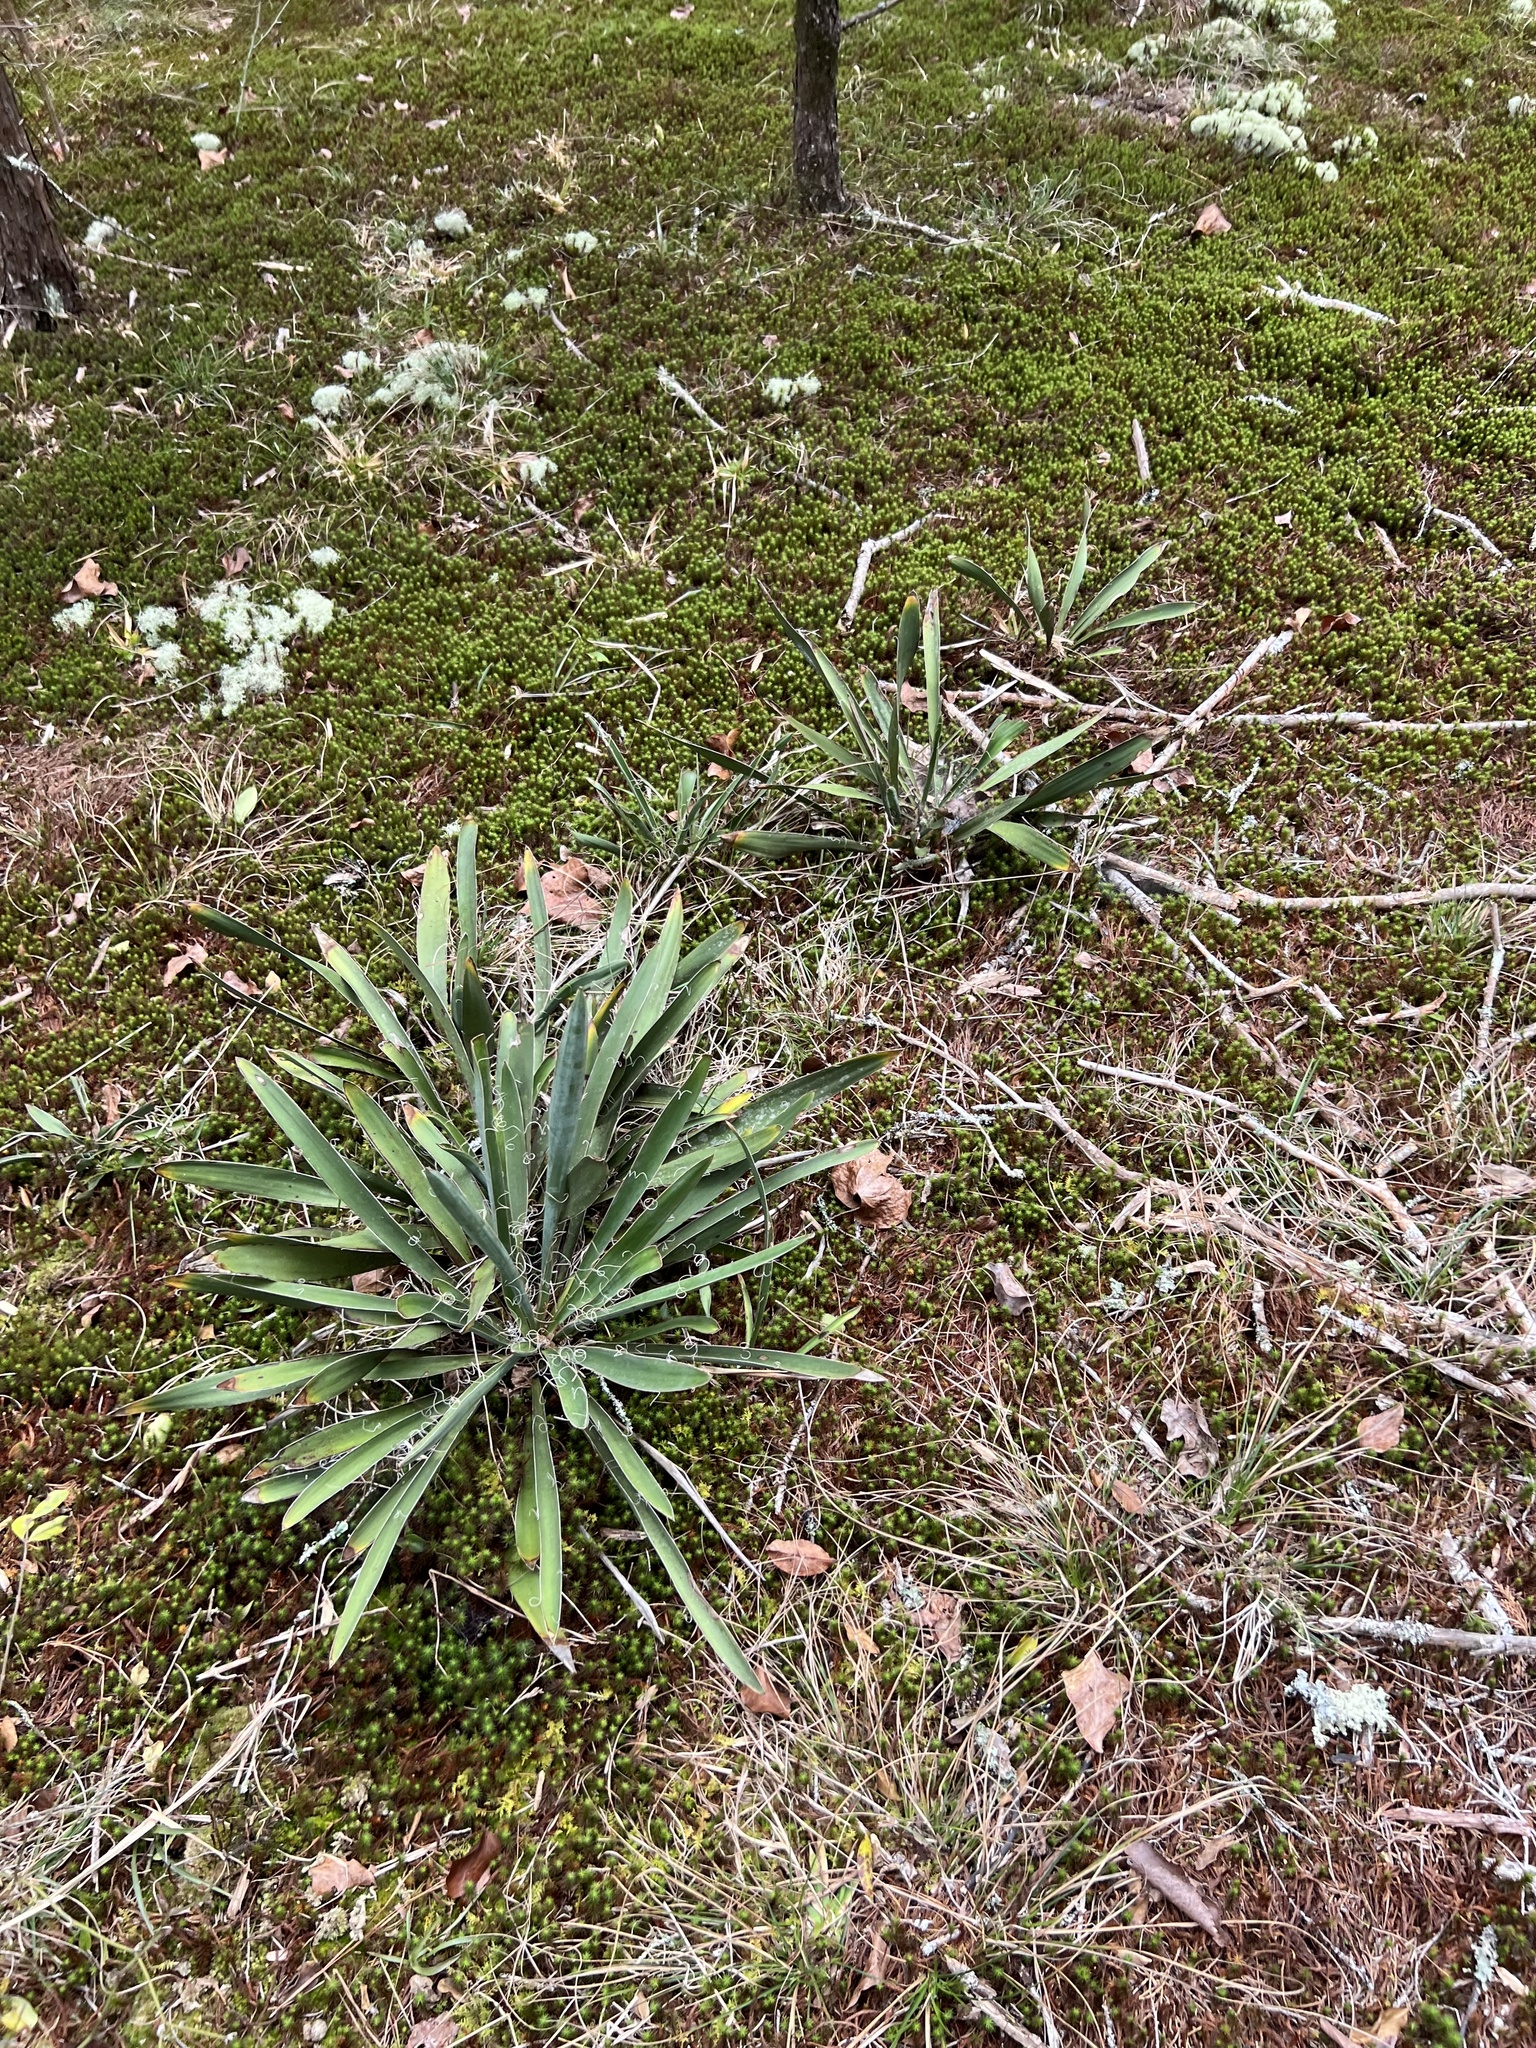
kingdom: Plantae
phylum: Tracheophyta
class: Liliopsida
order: Asparagales
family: Asparagaceae
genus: Yucca
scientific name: Yucca filamentosa
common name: Adam's-needle
